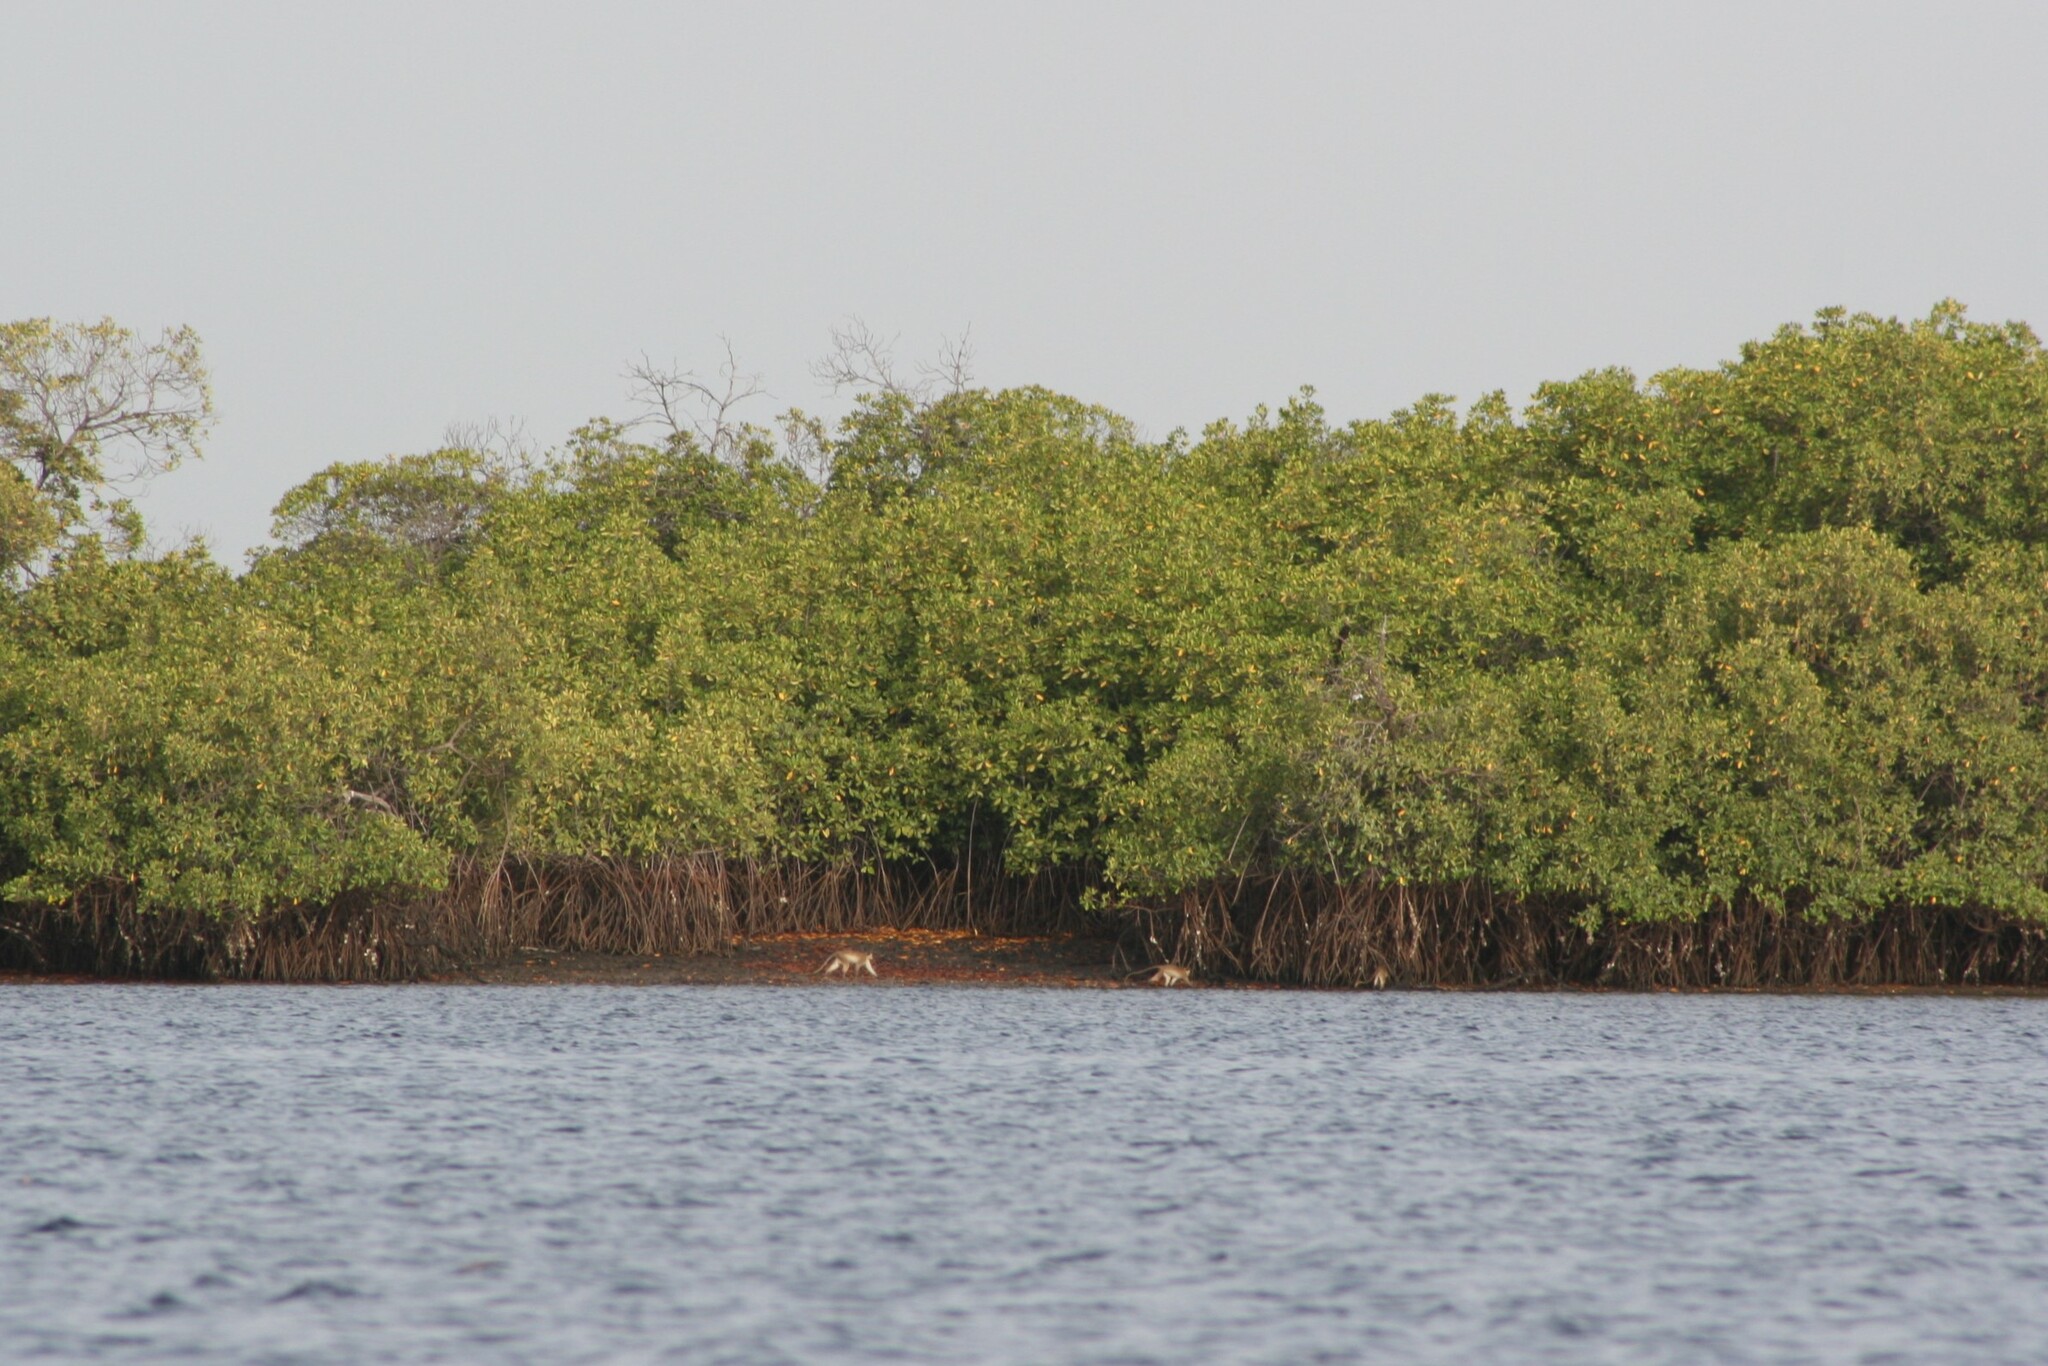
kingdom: Animalia
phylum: Chordata
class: Mammalia
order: Primates
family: Cercopithecidae
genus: Chlorocebus
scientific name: Chlorocebus sabaeus
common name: Green monkey
